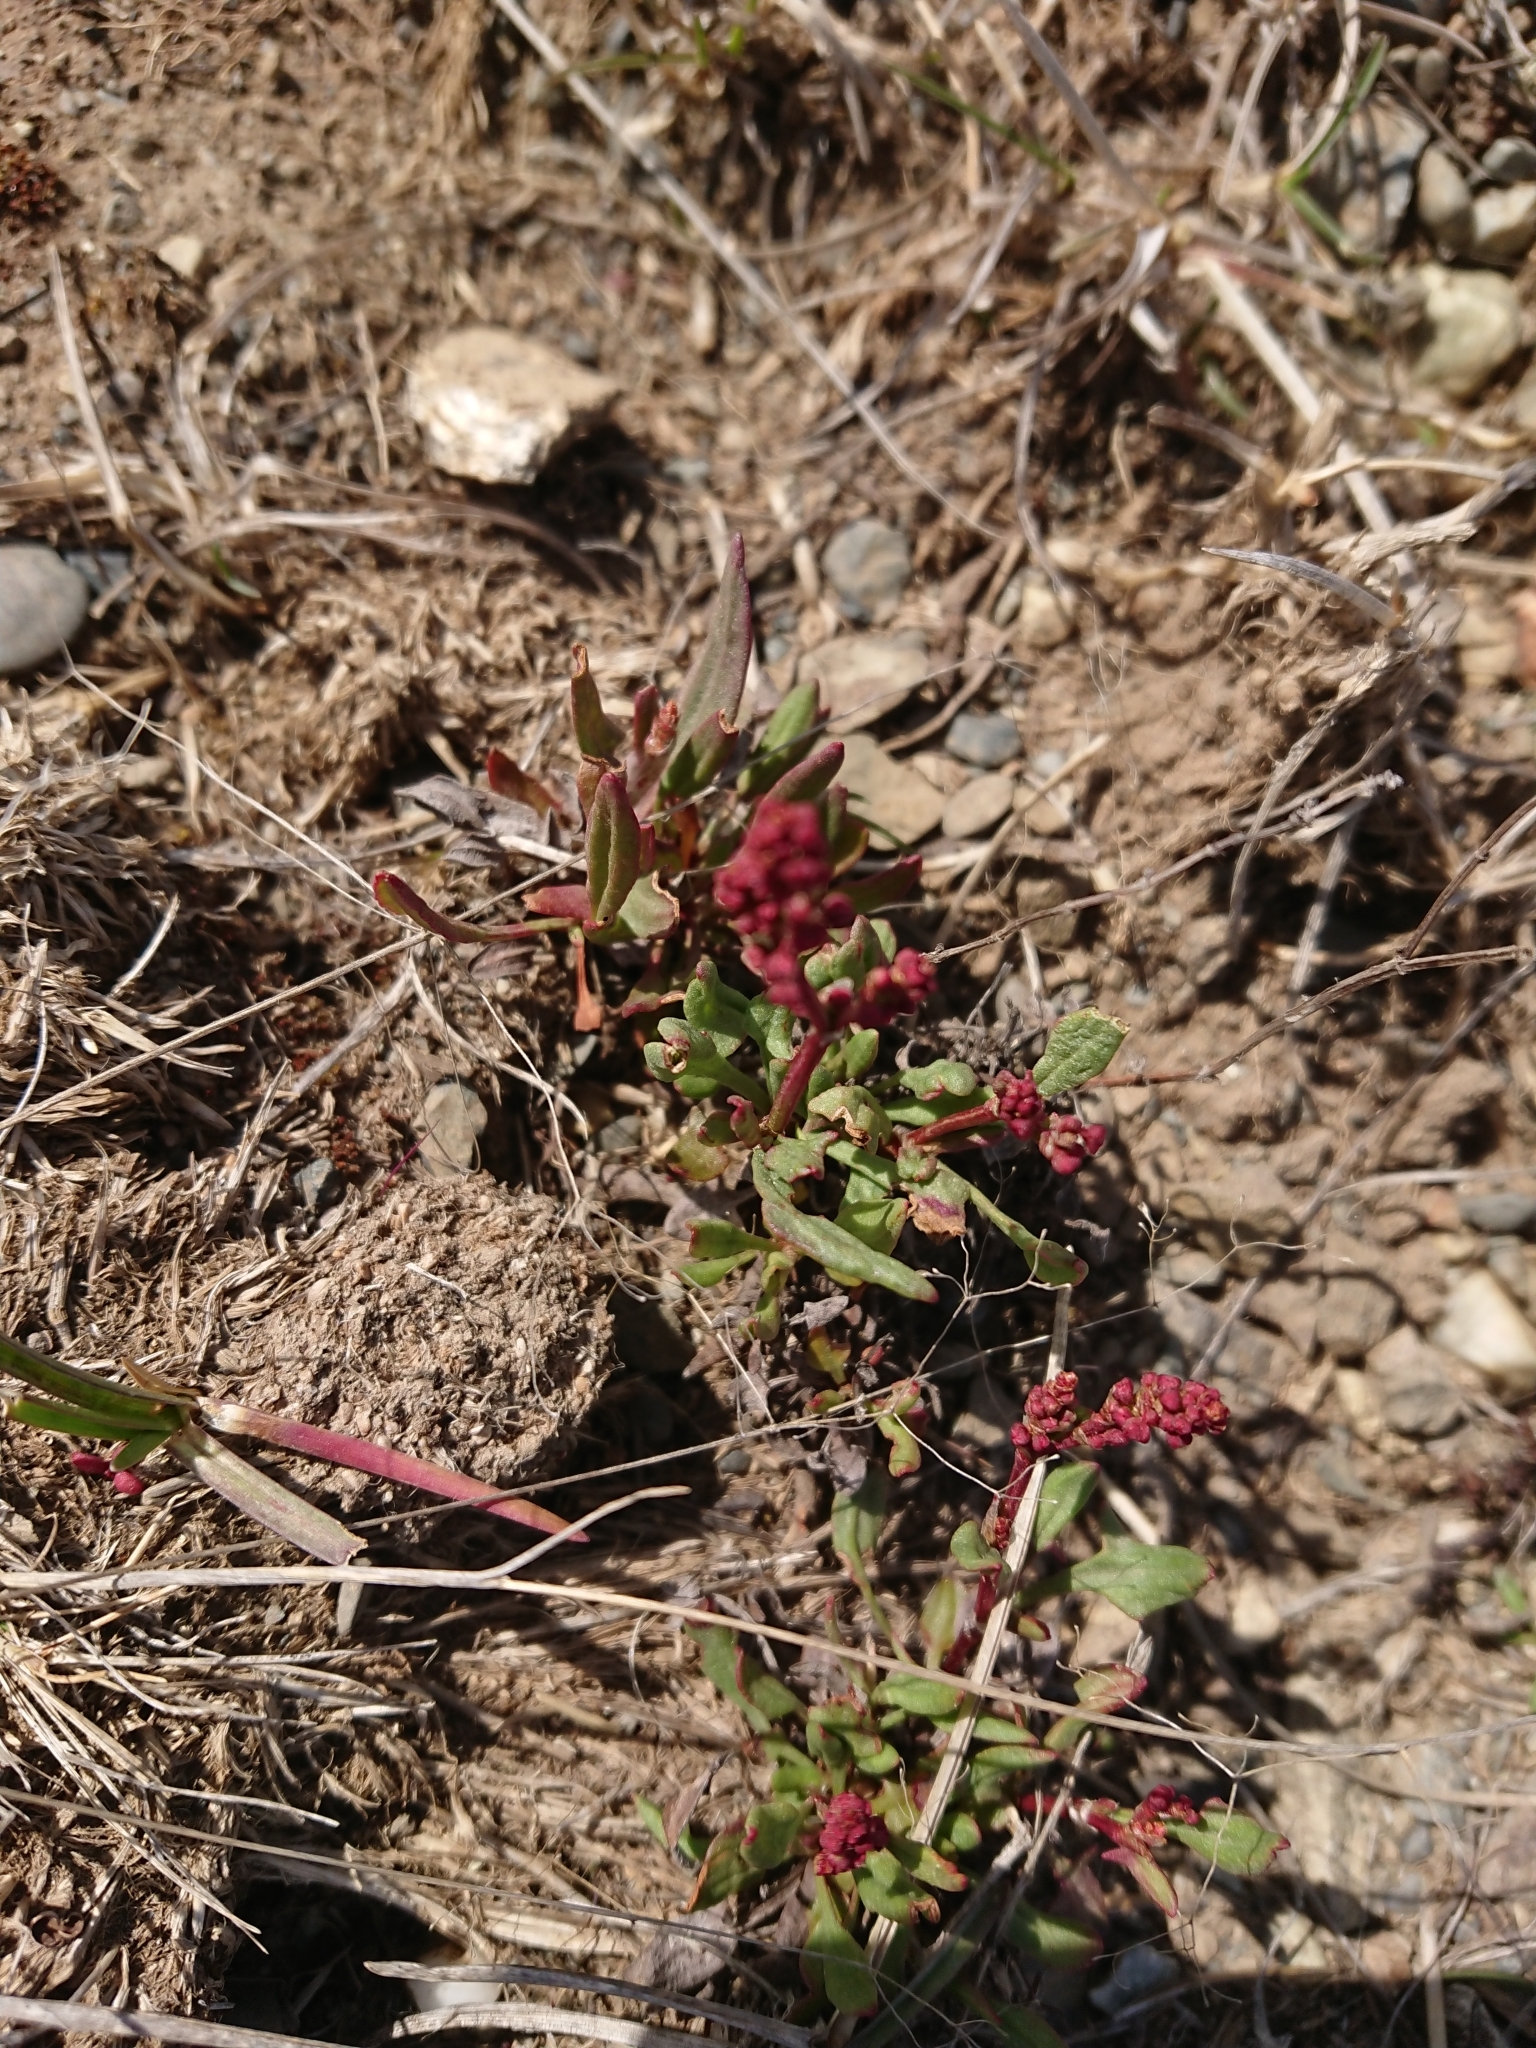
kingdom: Plantae
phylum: Tracheophyta
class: Magnoliopsida
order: Caryophyllales
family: Polygonaceae
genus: Rumex
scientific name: Rumex acetosella
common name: Common sheep sorrel
